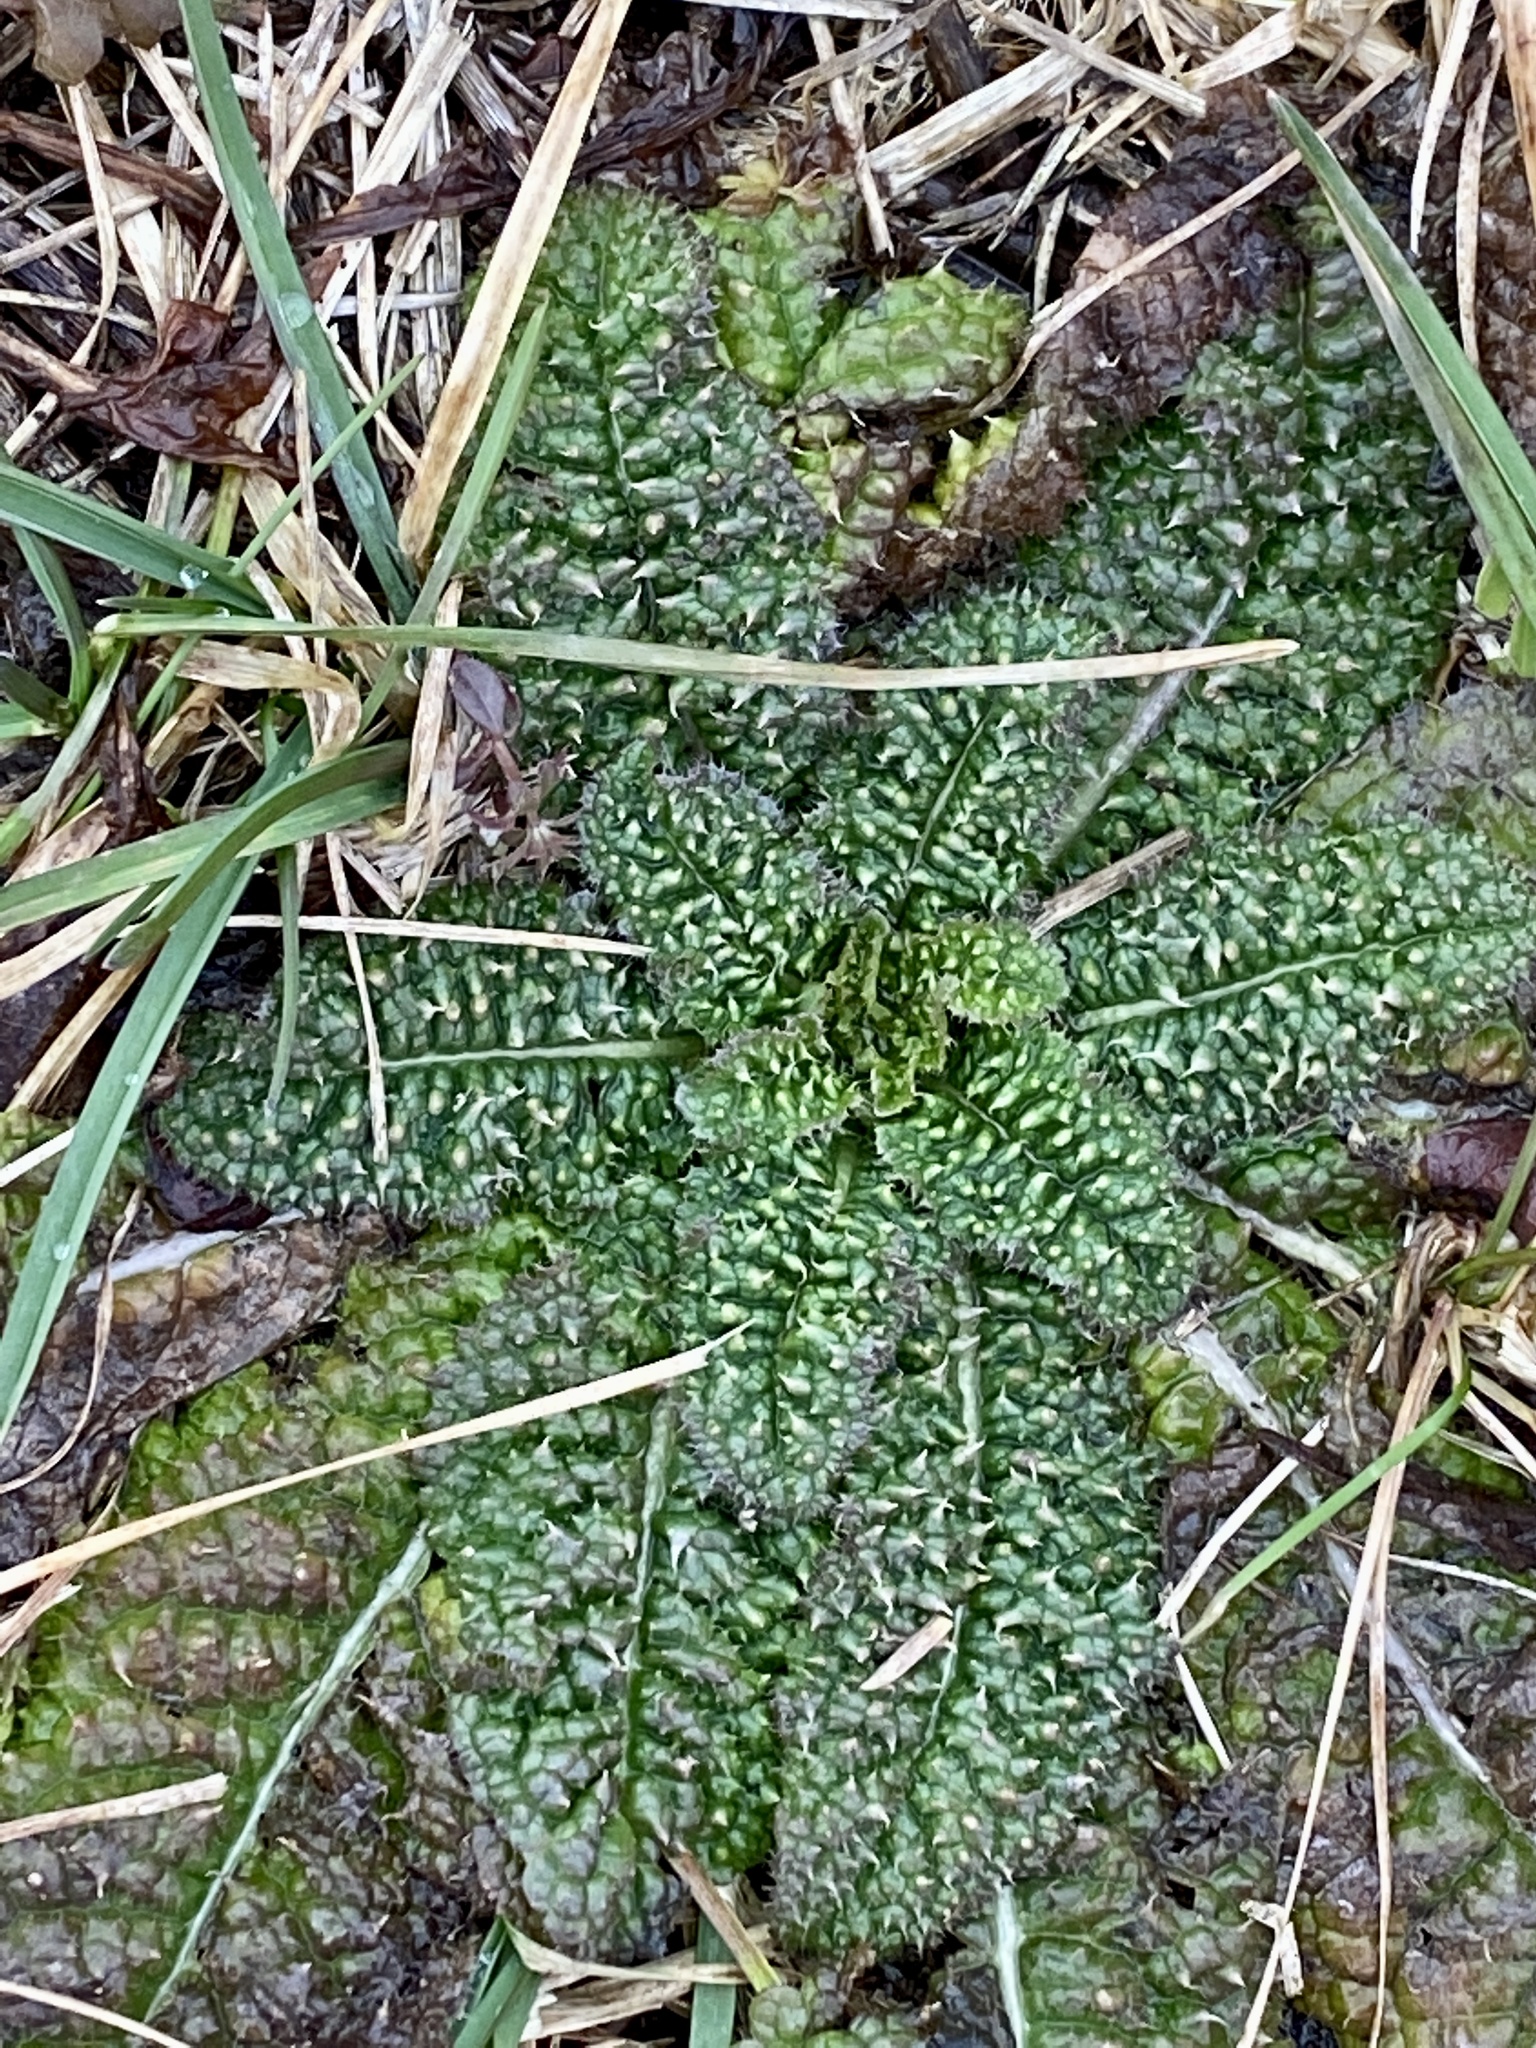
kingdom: Plantae
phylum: Tracheophyta
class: Magnoliopsida
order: Dipsacales
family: Caprifoliaceae
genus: Dipsacus
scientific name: Dipsacus fullonum
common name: Teasel
